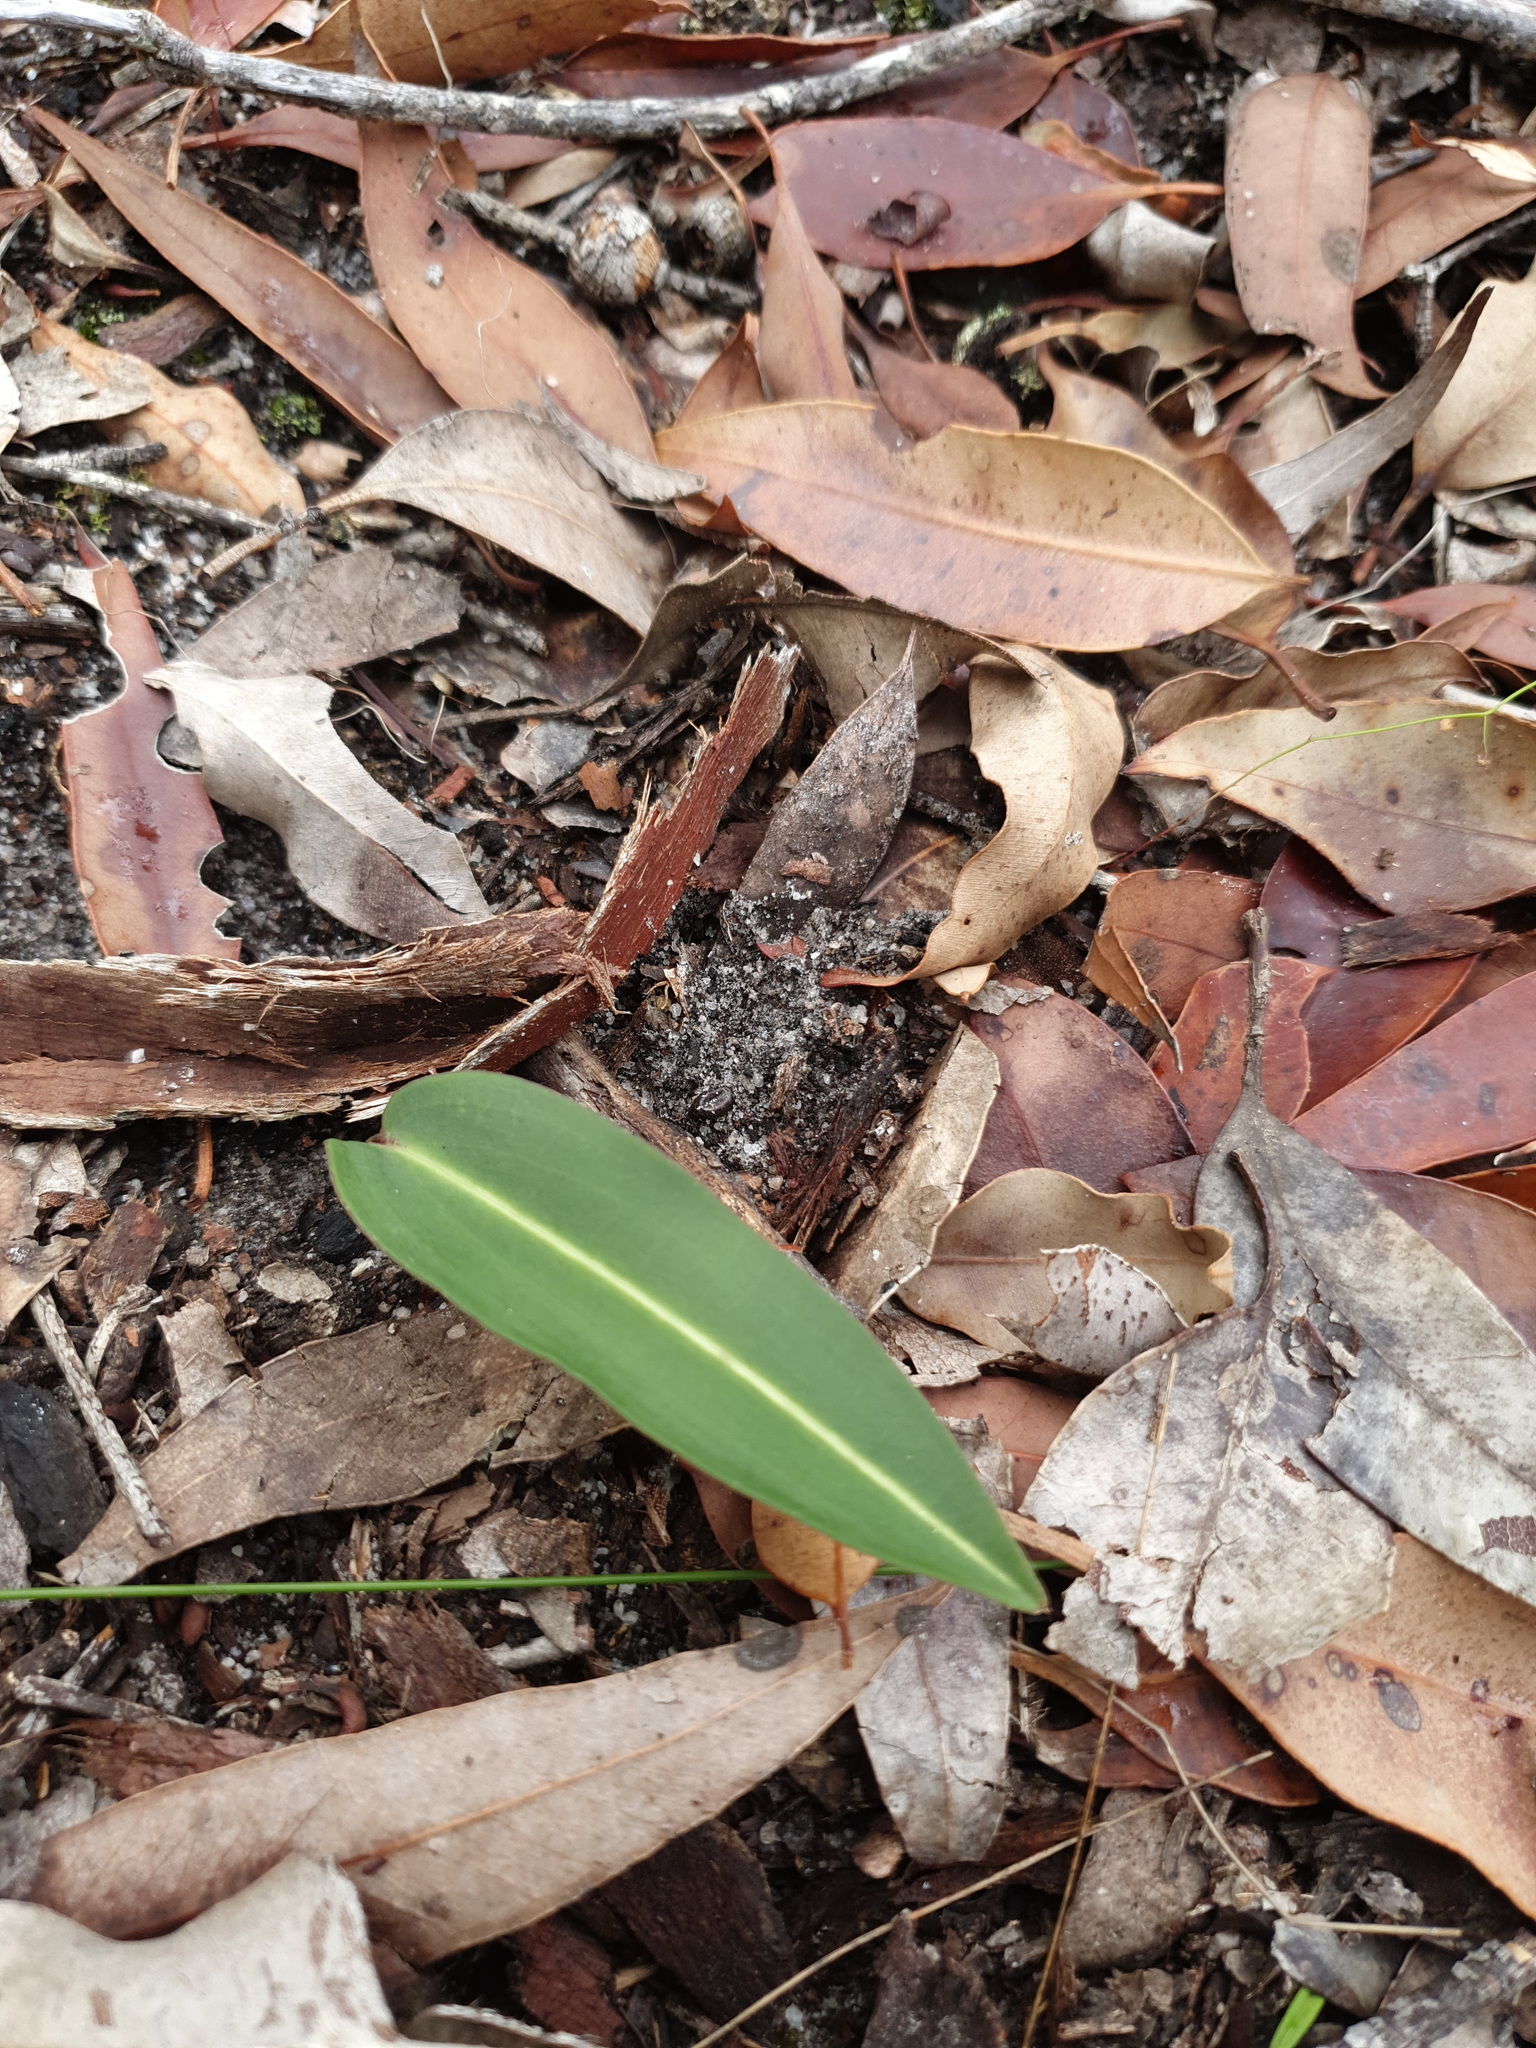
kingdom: Plantae
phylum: Tracheophyta
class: Liliopsida
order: Asparagales
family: Orchidaceae
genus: Cryptostylis
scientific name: Cryptostylis ovata
